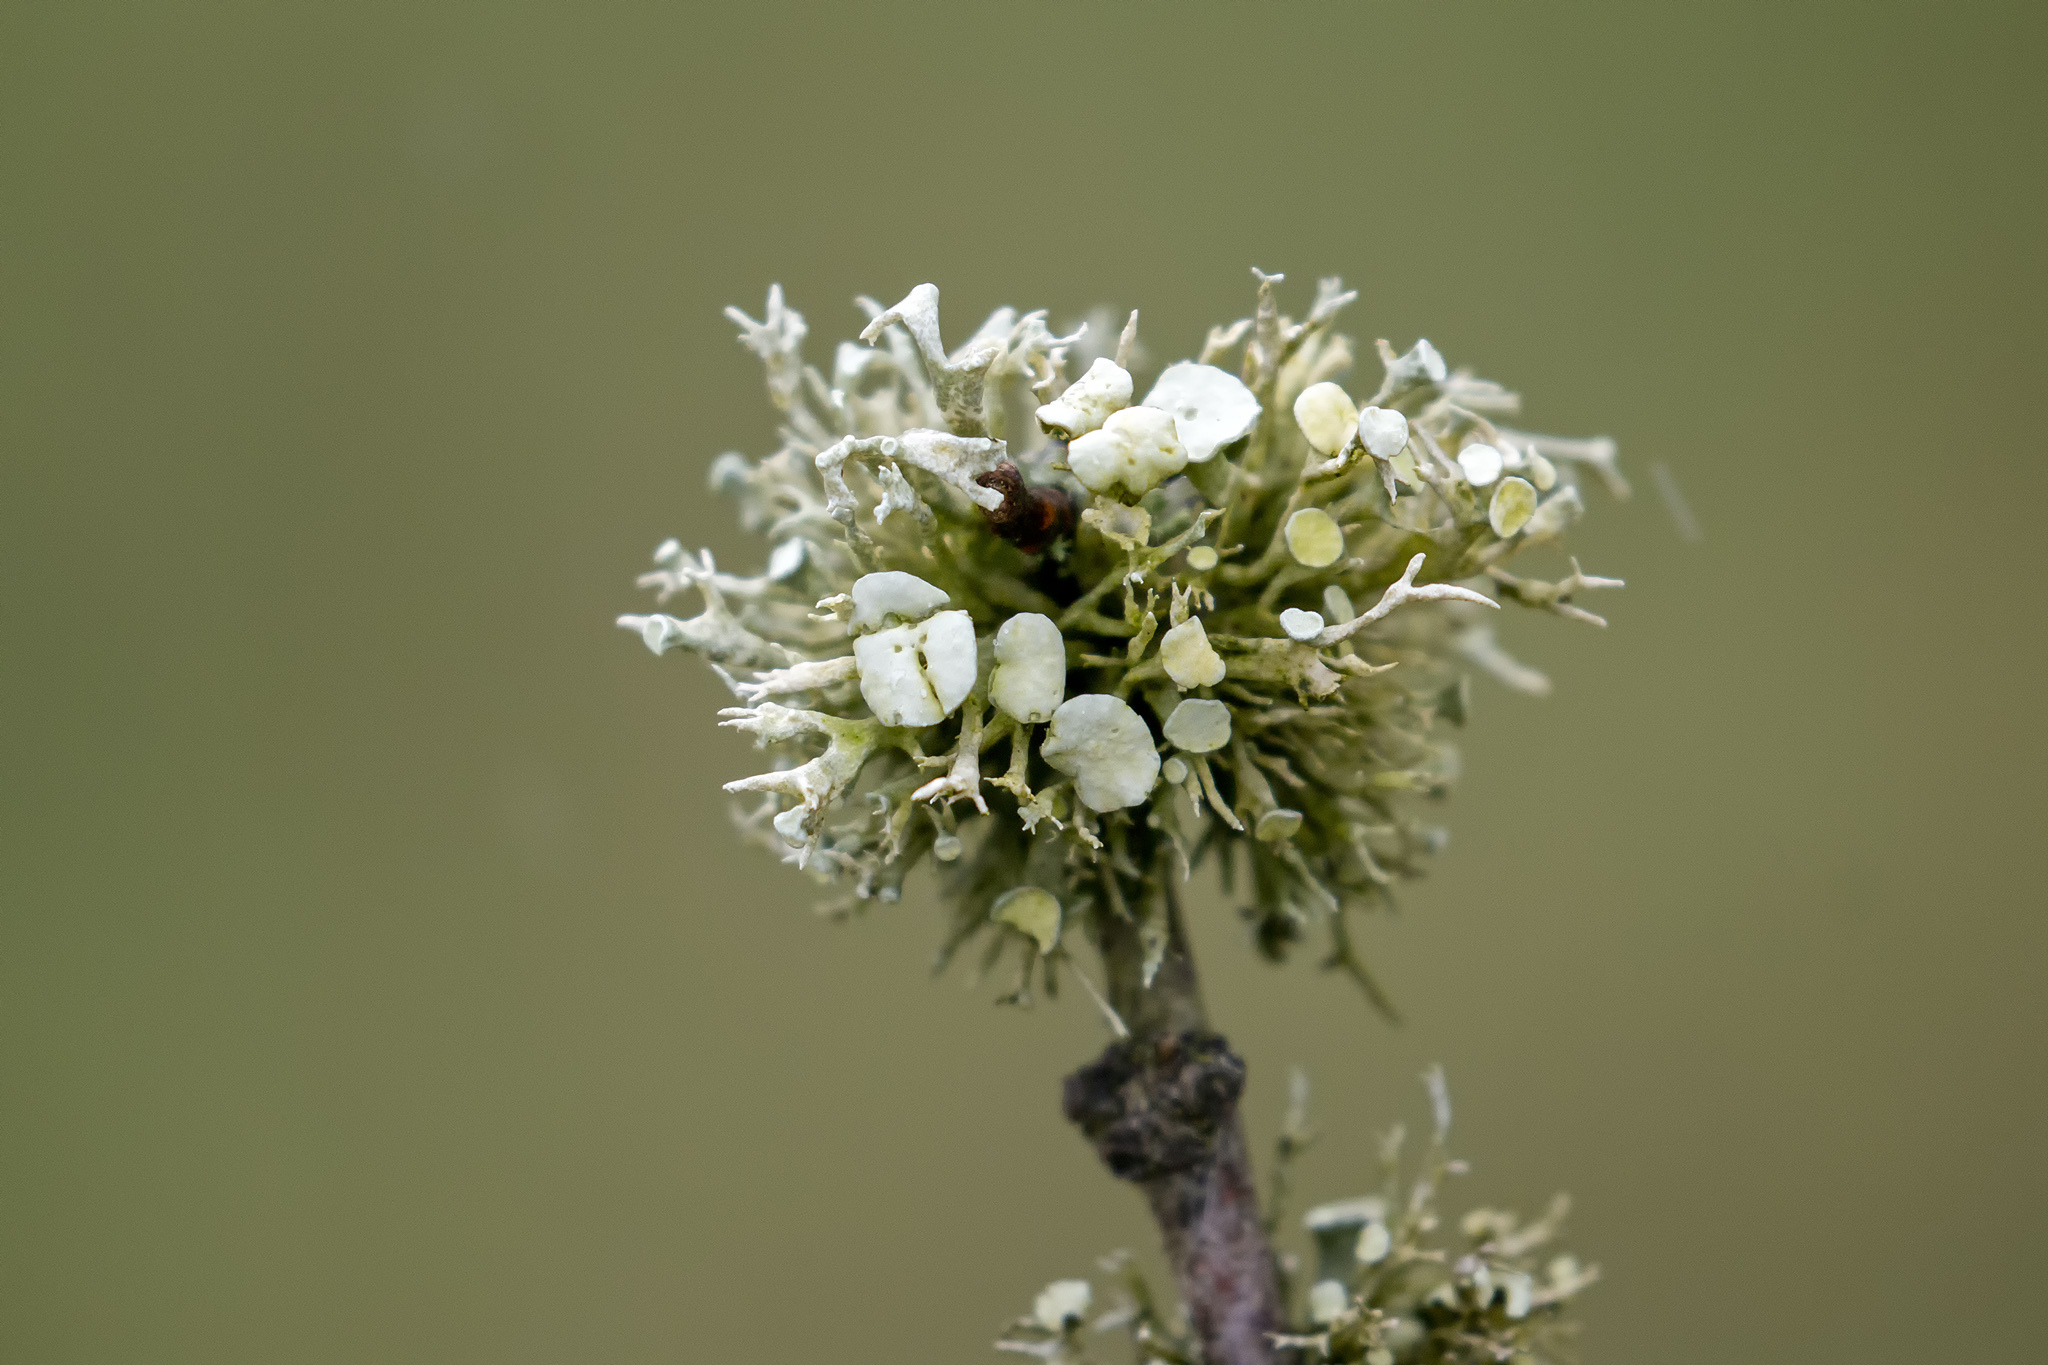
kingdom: Fungi
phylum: Ascomycota
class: Lecanoromycetes
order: Lecanorales
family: Ramalinaceae
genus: Ramalina
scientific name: Ramalina fastigiata
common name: Dotted ribbon lichen
